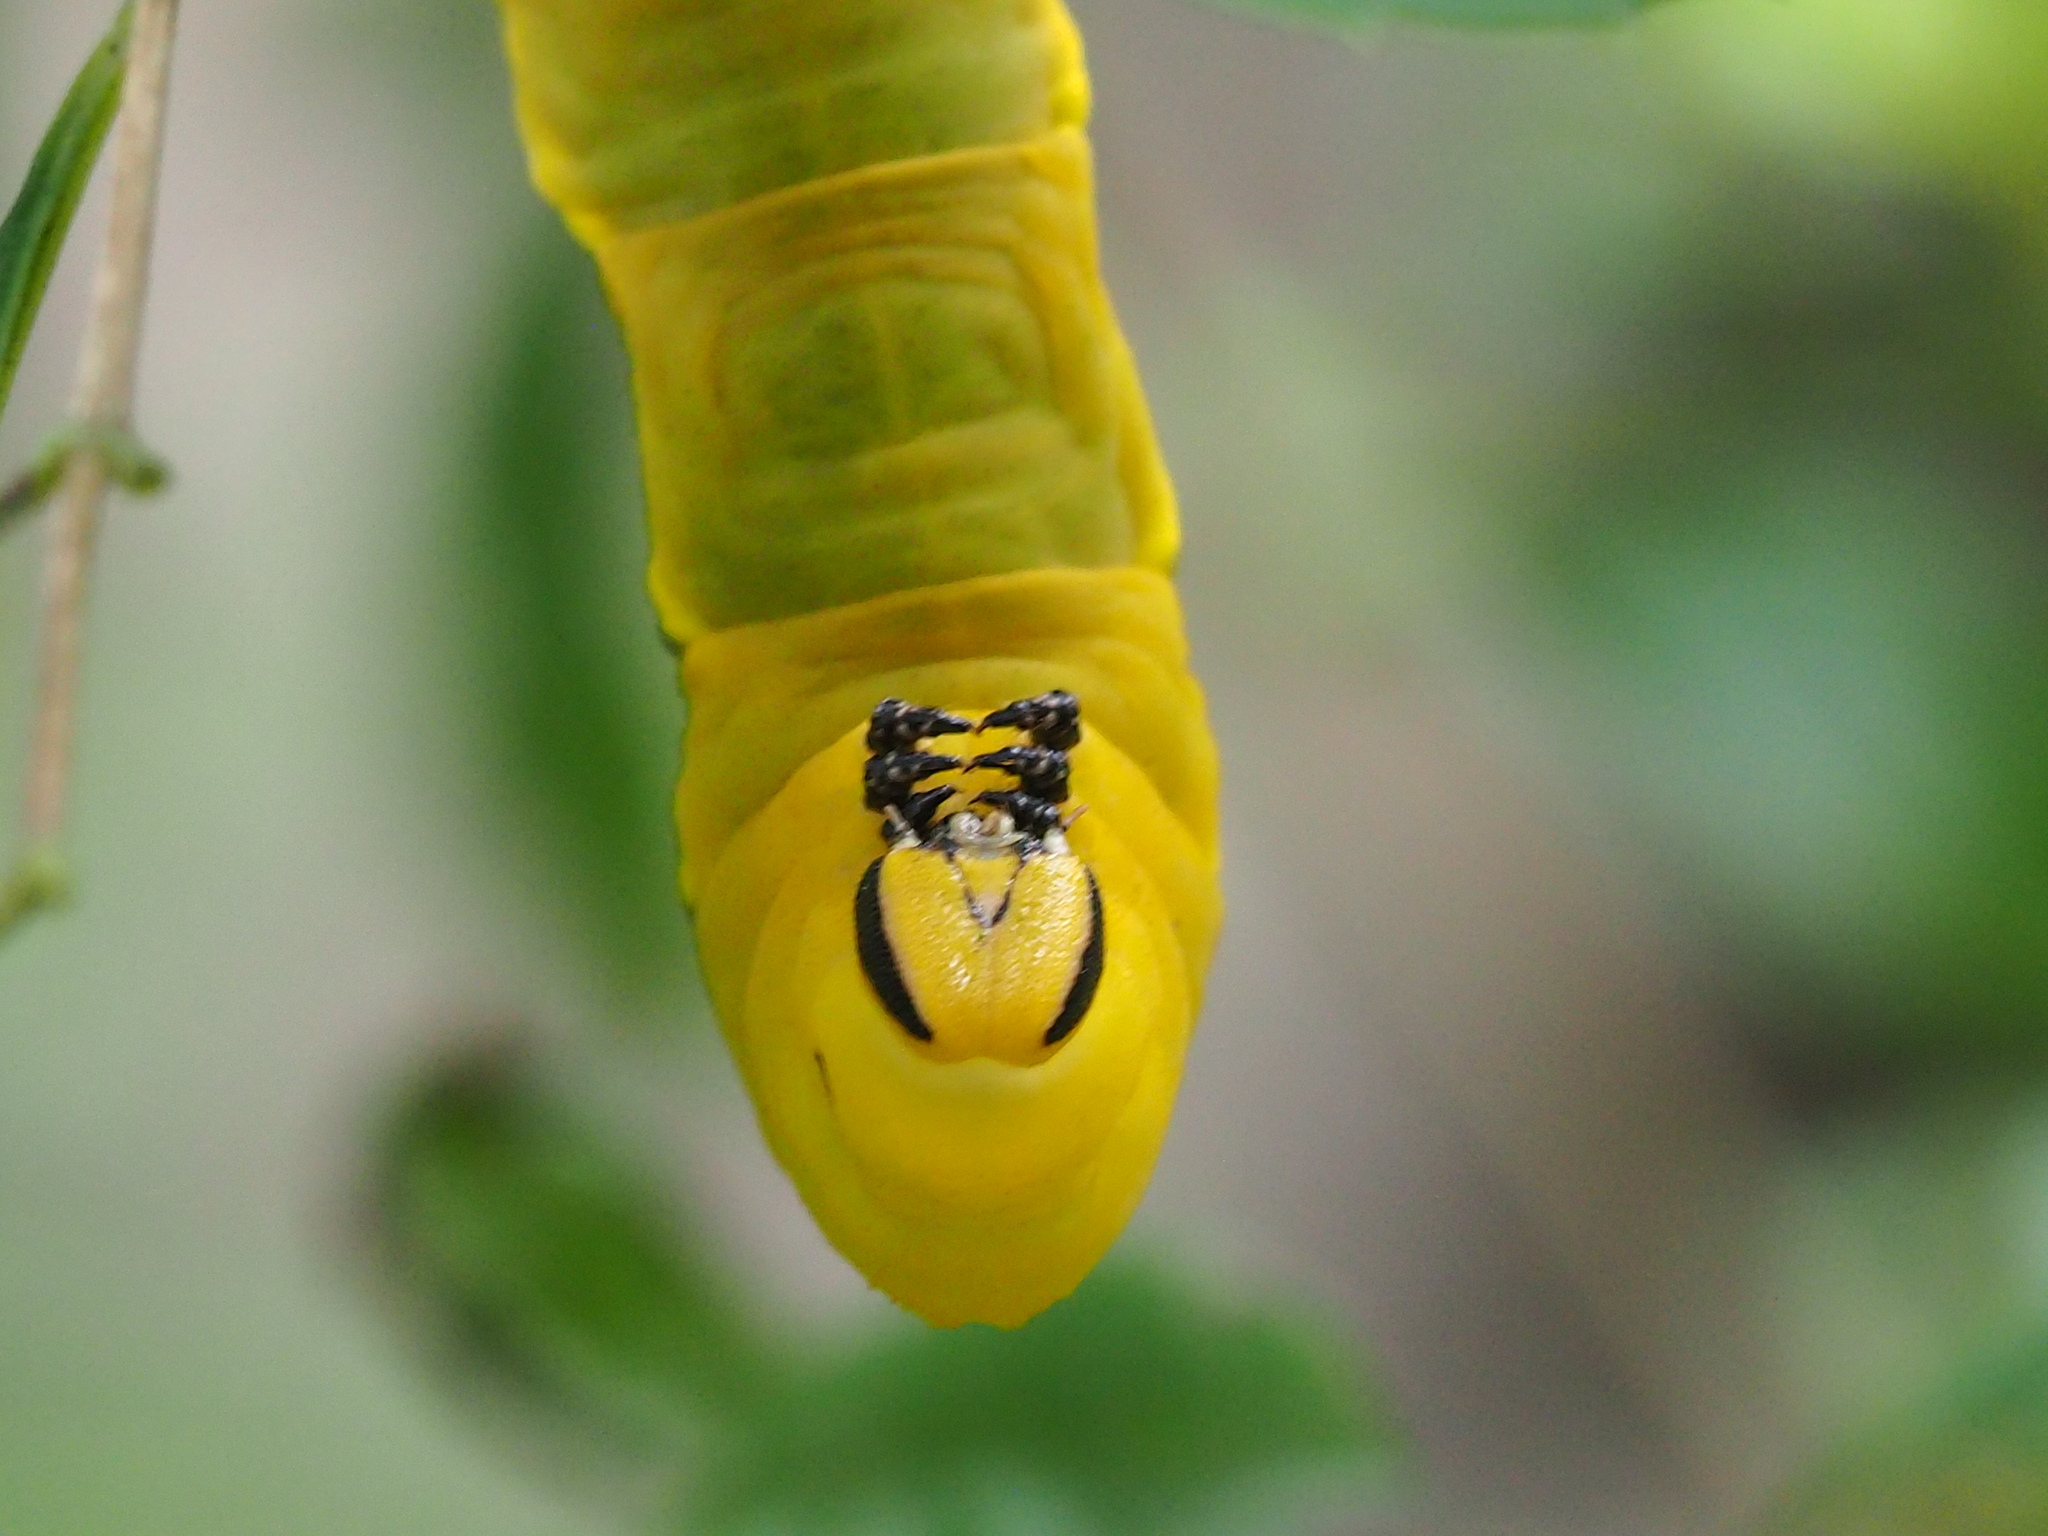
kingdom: Animalia
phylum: Arthropoda
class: Insecta
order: Lepidoptera
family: Sphingidae
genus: Acherontia
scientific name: Acherontia lachesis
